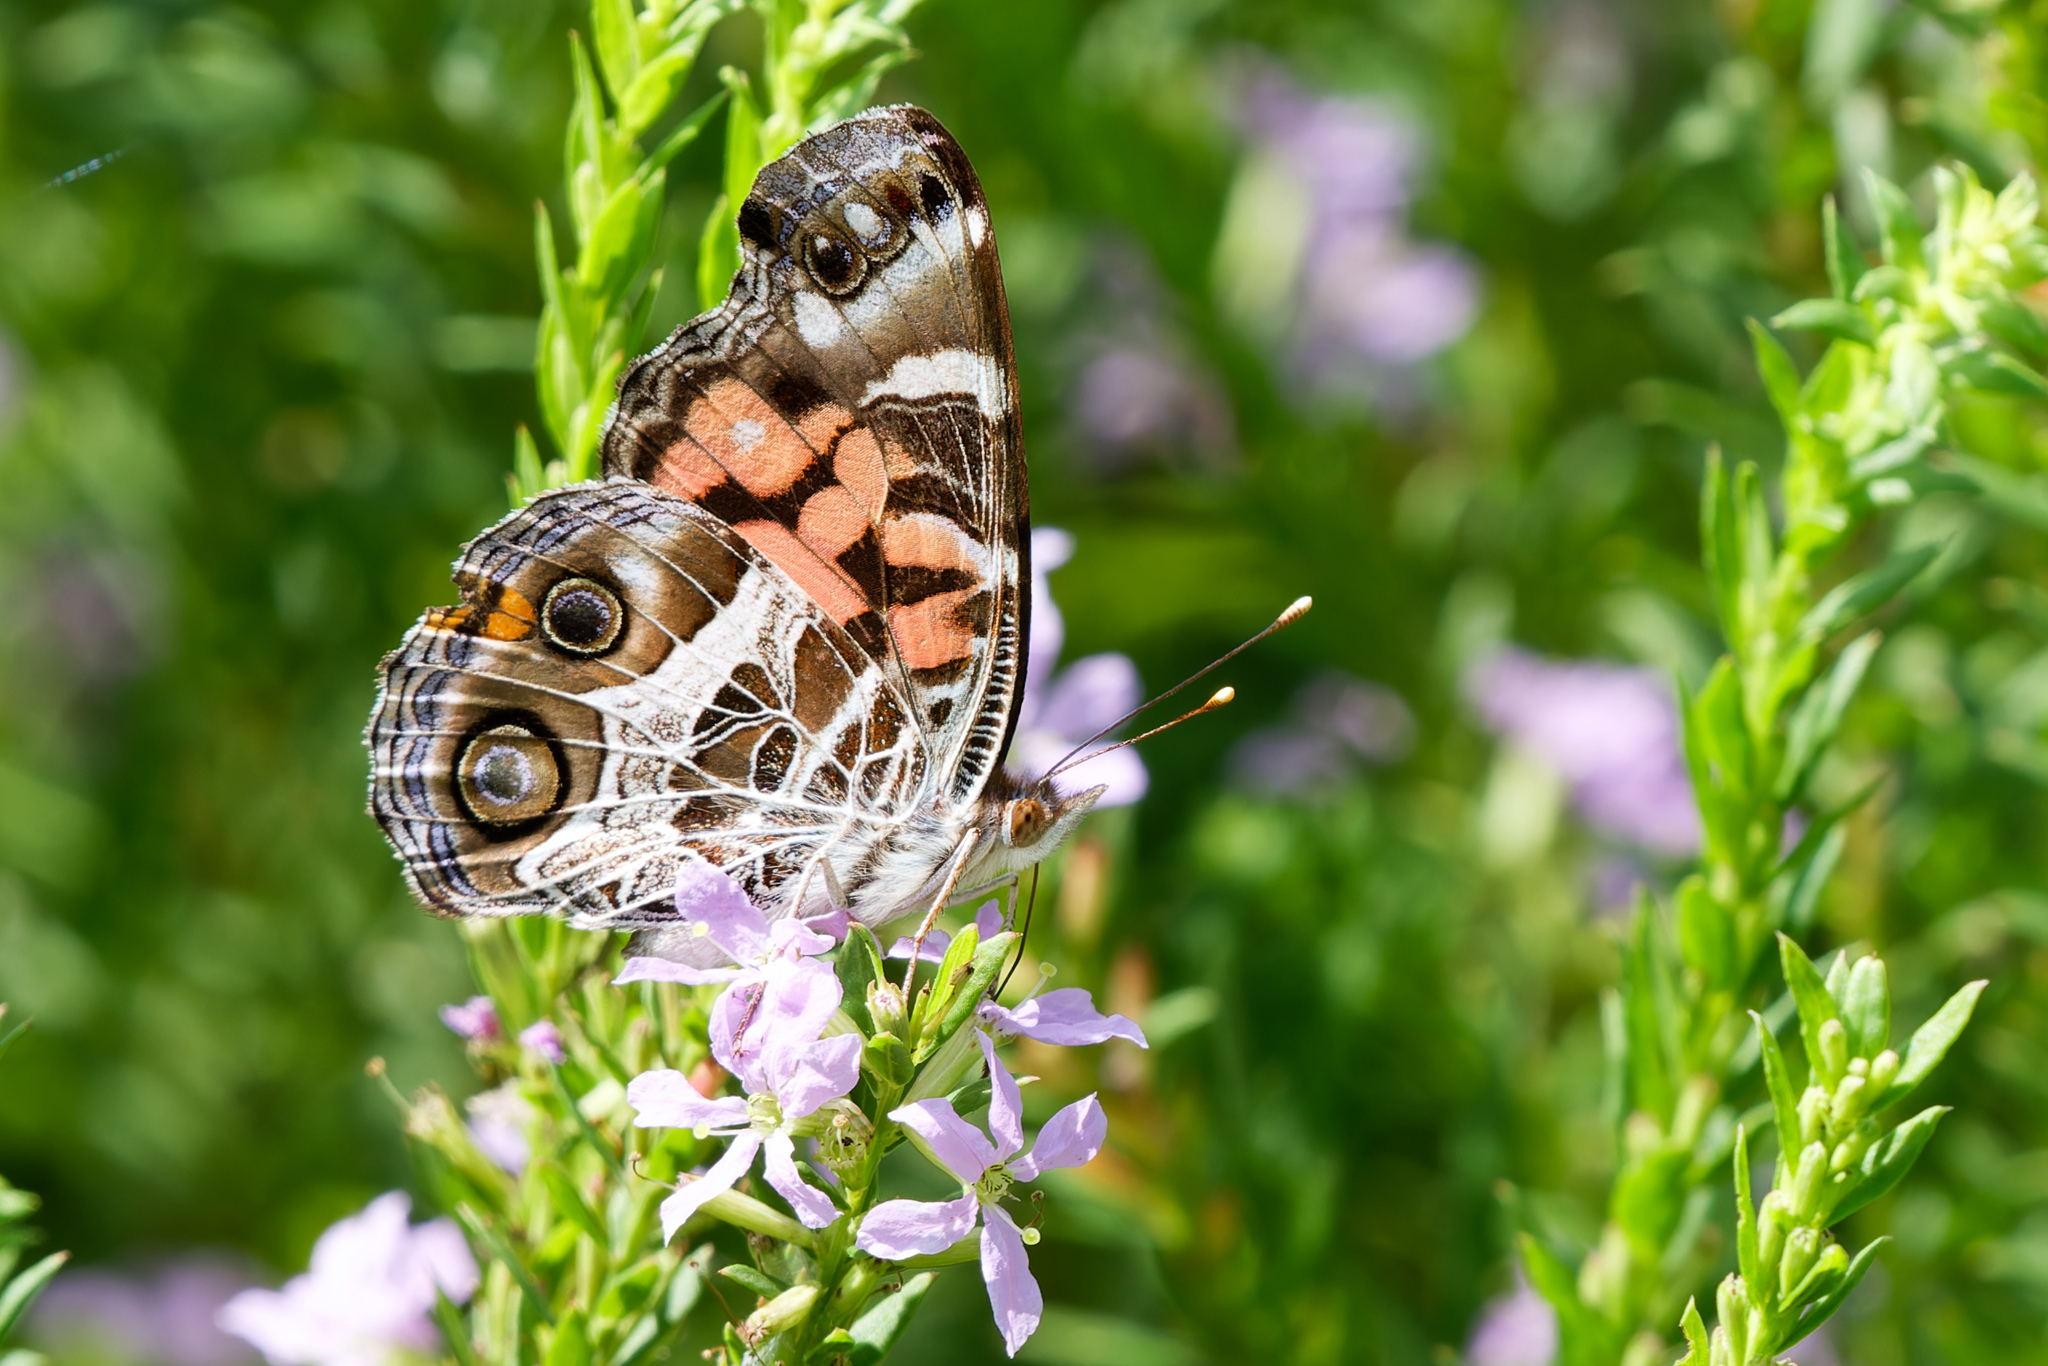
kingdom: Animalia
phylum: Arthropoda
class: Insecta
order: Lepidoptera
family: Nymphalidae
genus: Vanessa
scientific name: Vanessa virginiensis
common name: American lady
